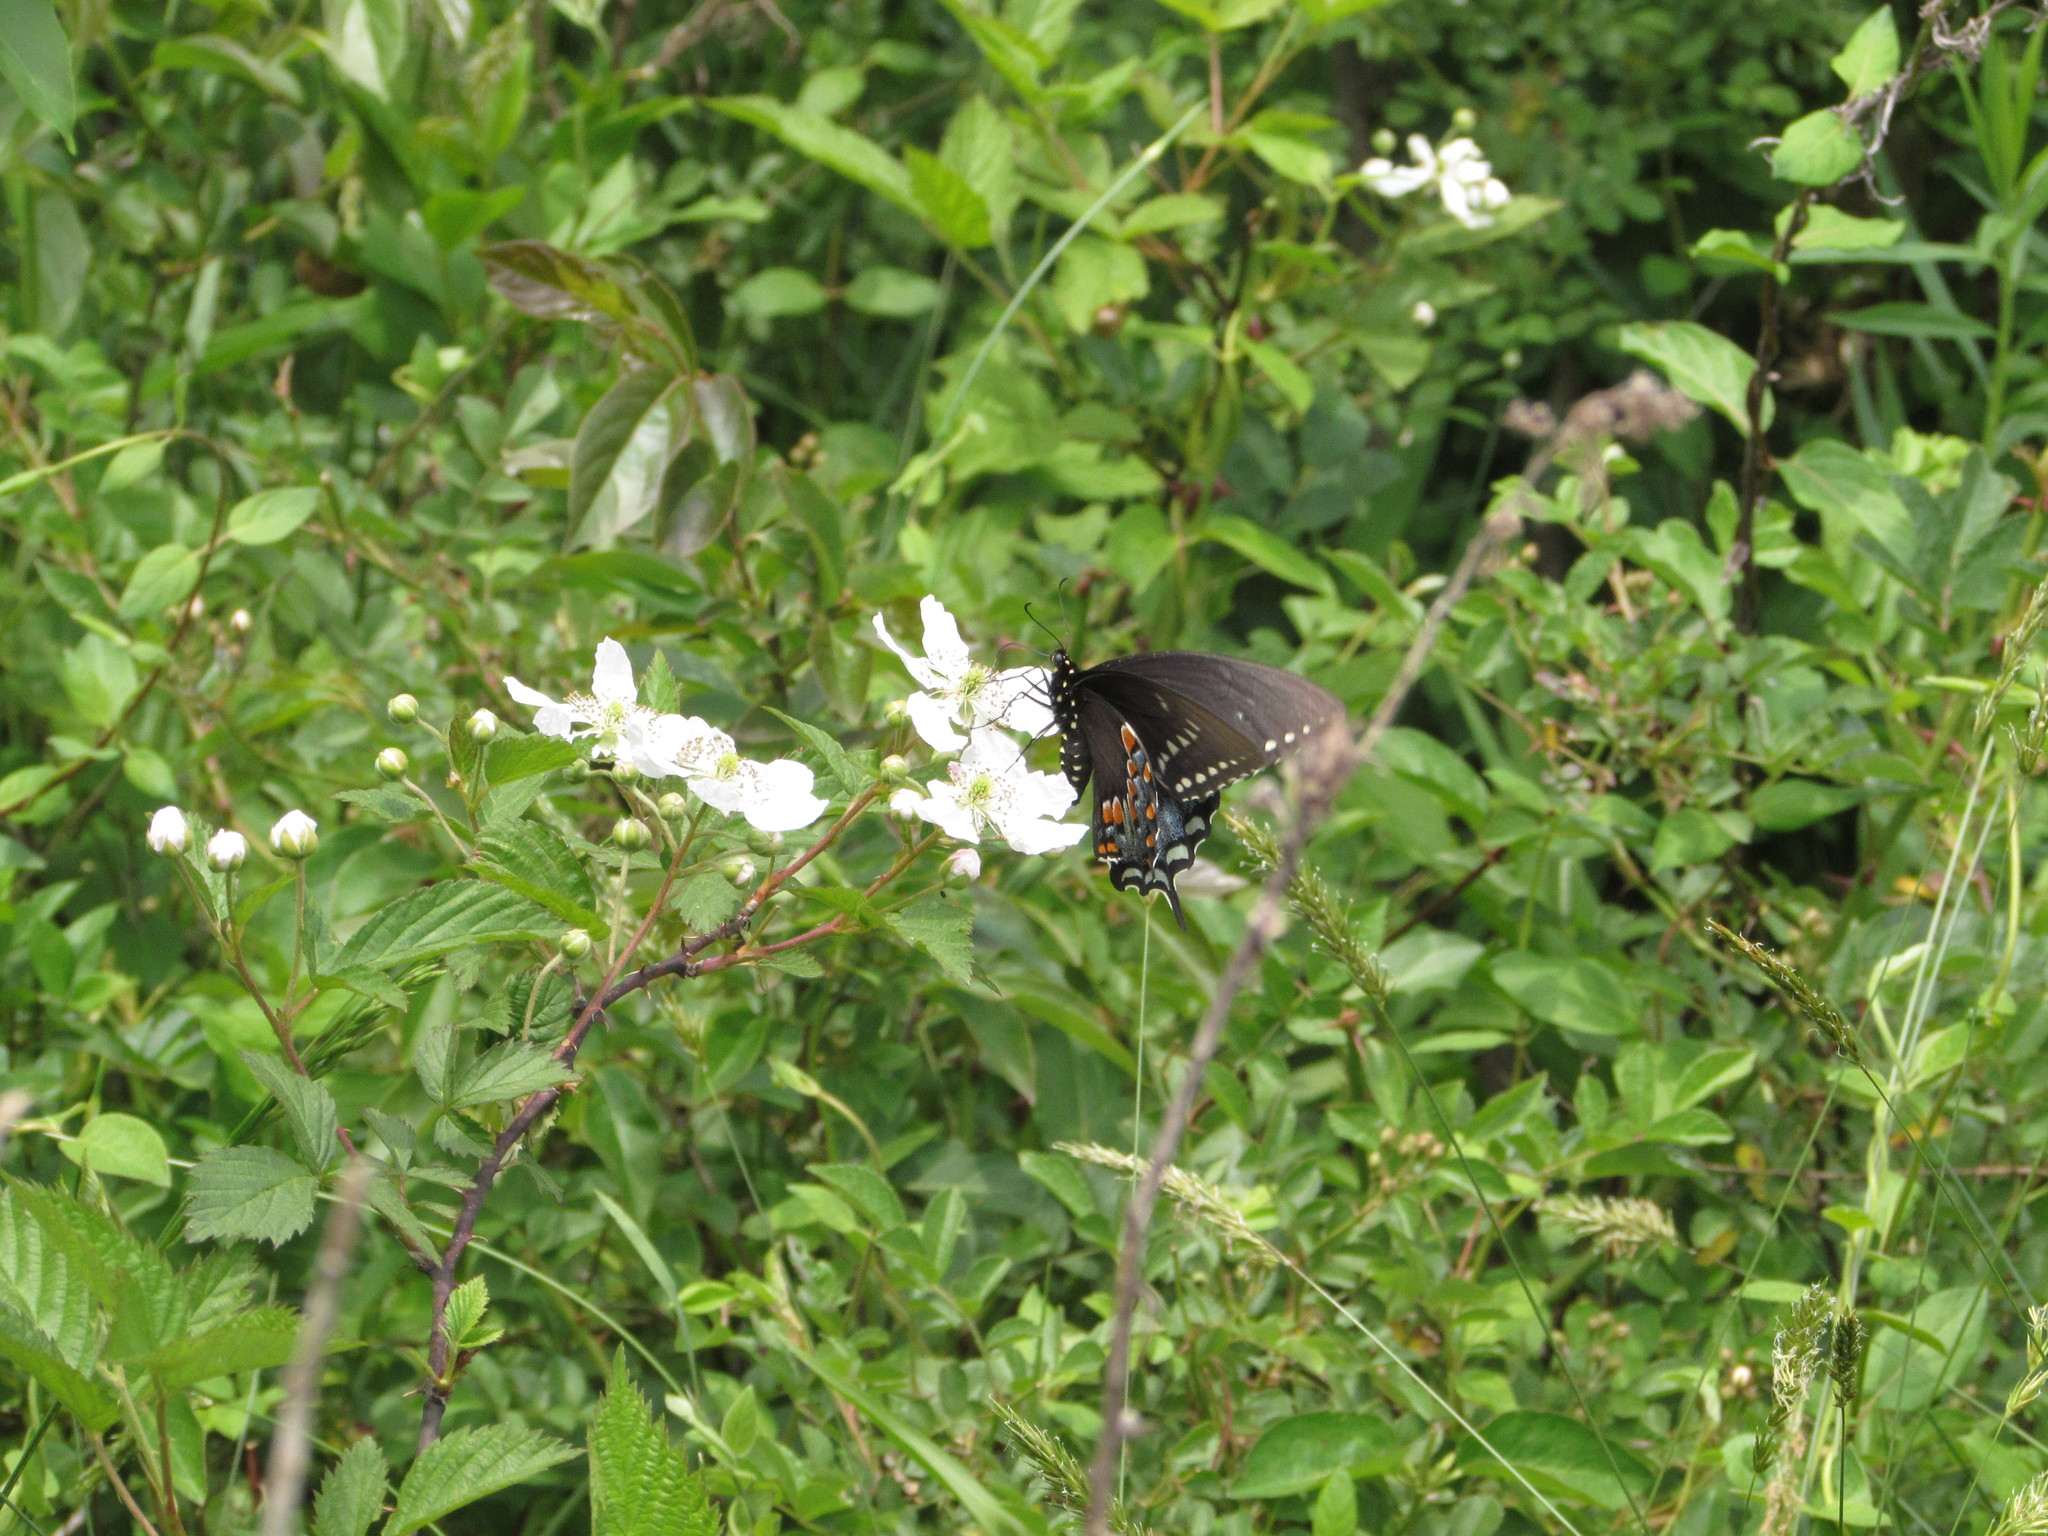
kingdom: Animalia
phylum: Arthropoda
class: Insecta
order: Lepidoptera
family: Papilionidae
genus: Papilio
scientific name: Papilio troilus
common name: Spicebush swallowtail
